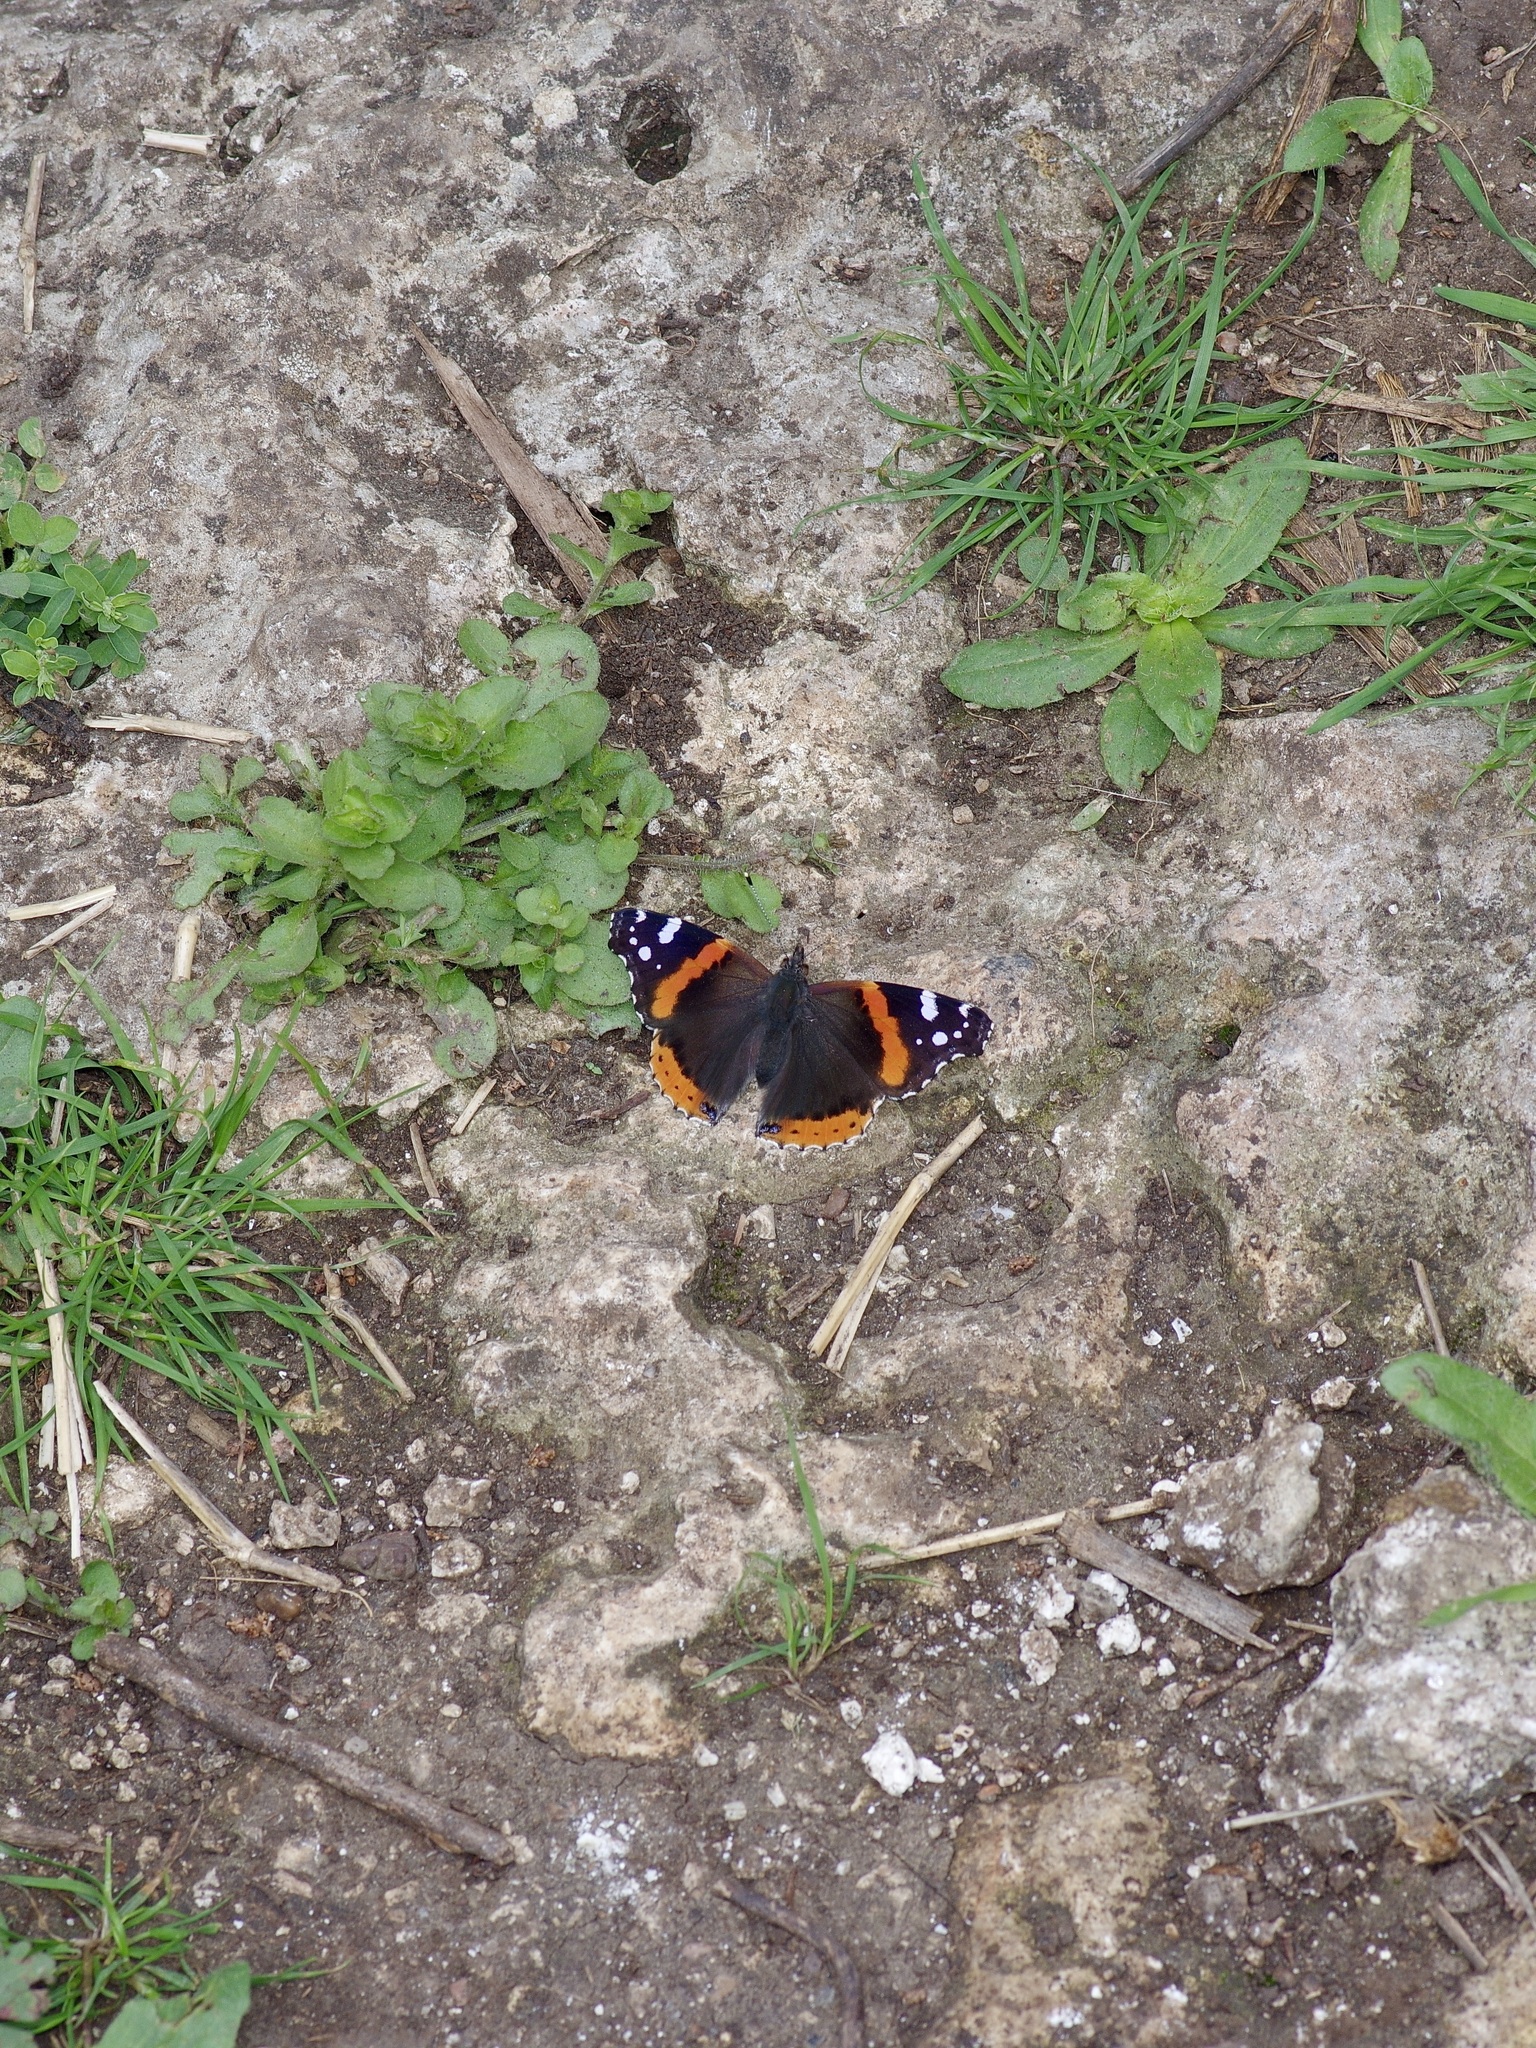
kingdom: Animalia
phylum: Arthropoda
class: Insecta
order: Lepidoptera
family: Nymphalidae
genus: Vanessa
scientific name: Vanessa atalanta
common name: Red admiral
